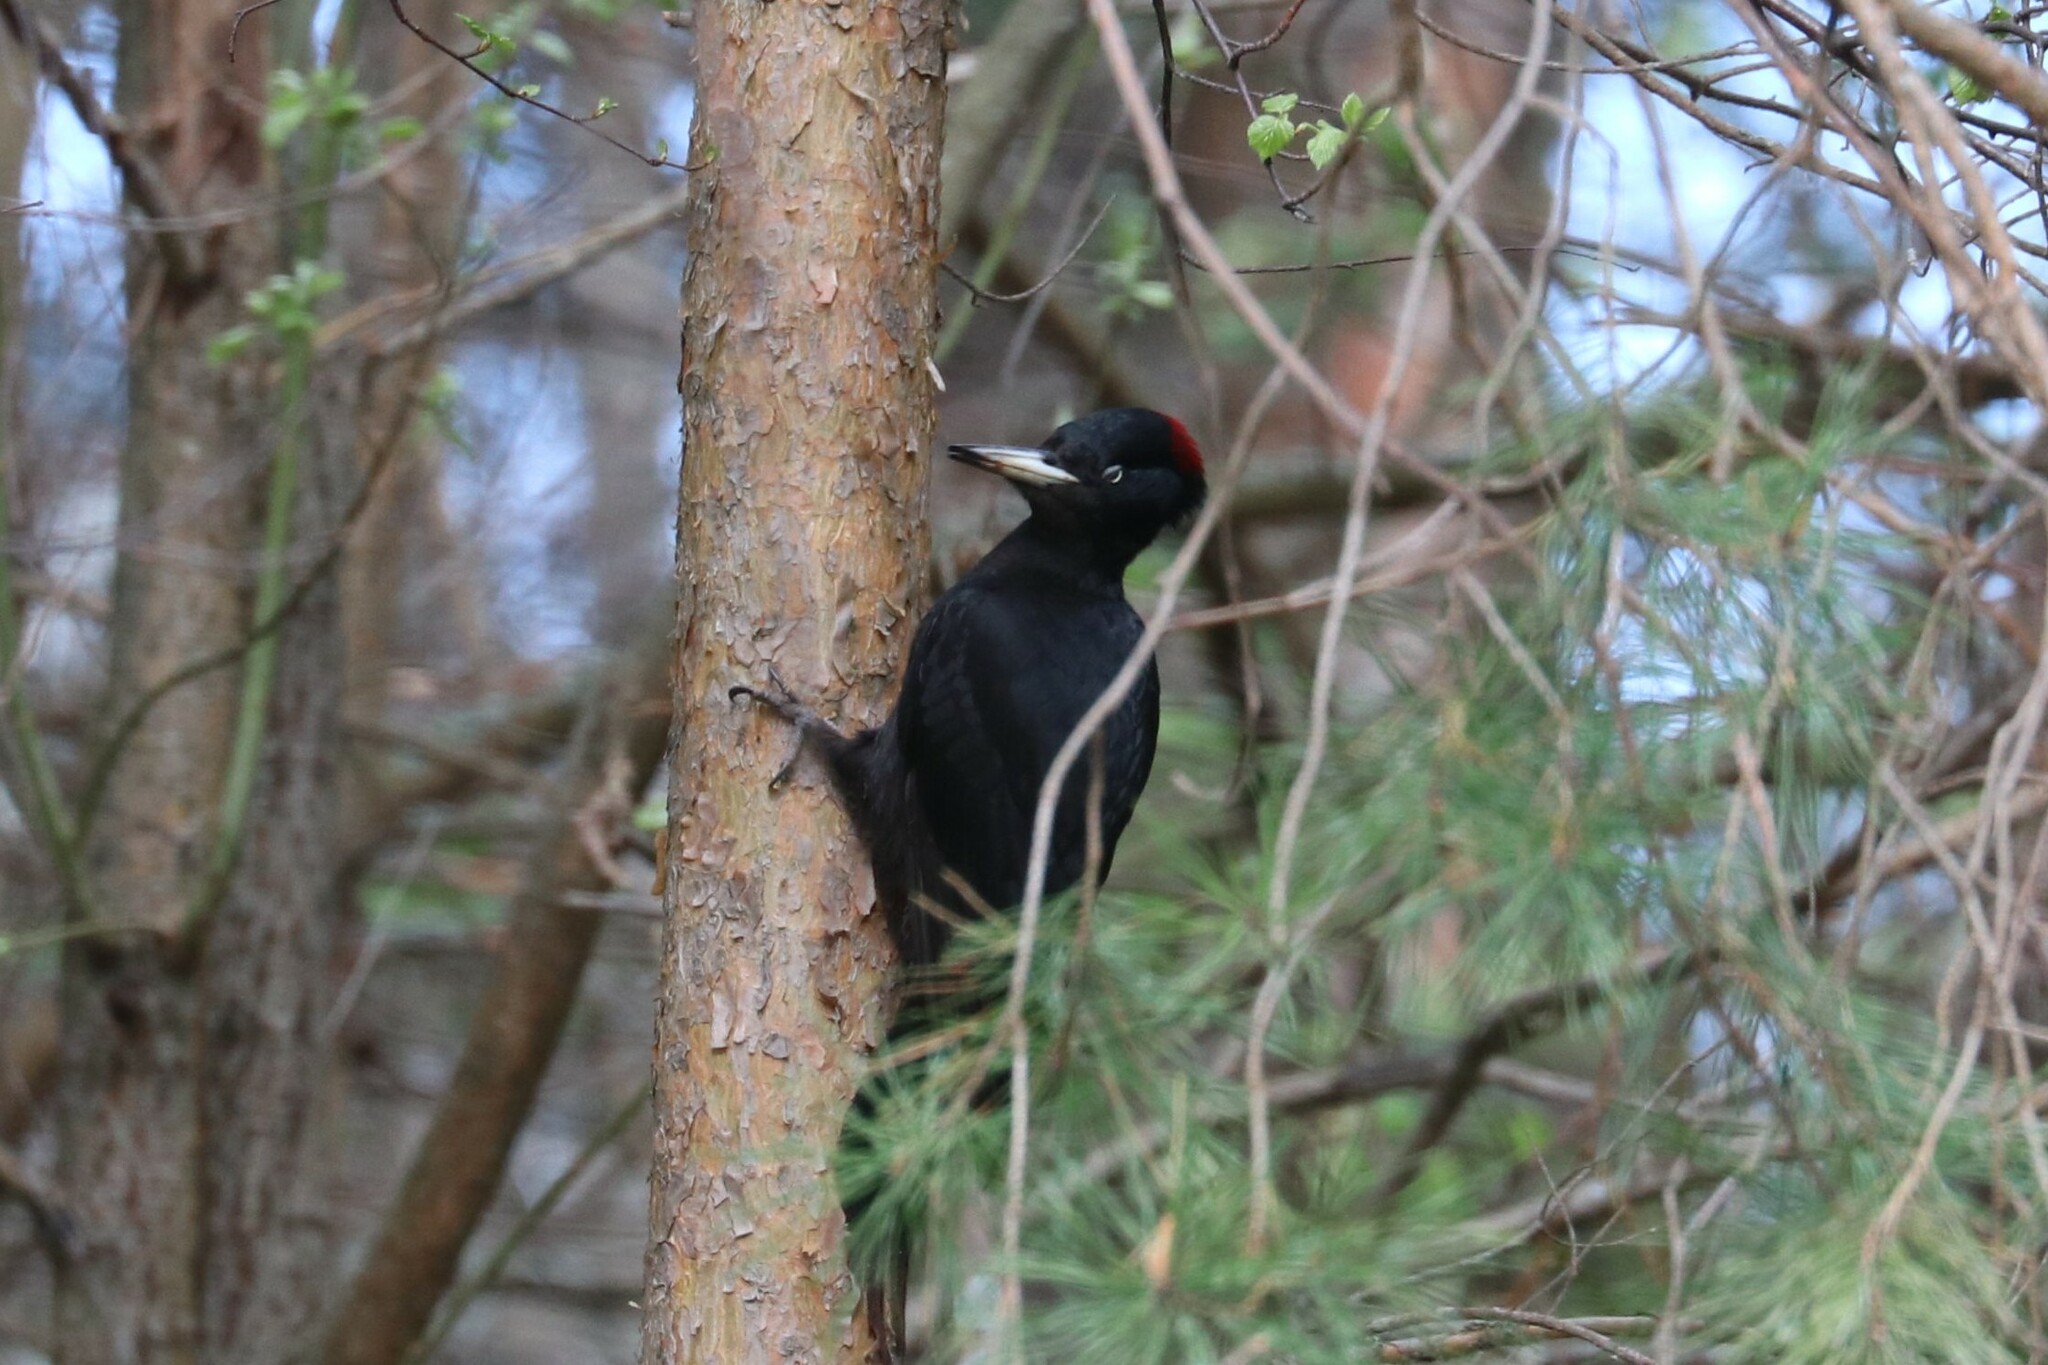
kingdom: Animalia
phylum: Chordata
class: Aves
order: Piciformes
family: Picidae
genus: Dryocopus
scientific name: Dryocopus martius
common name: Black woodpecker
